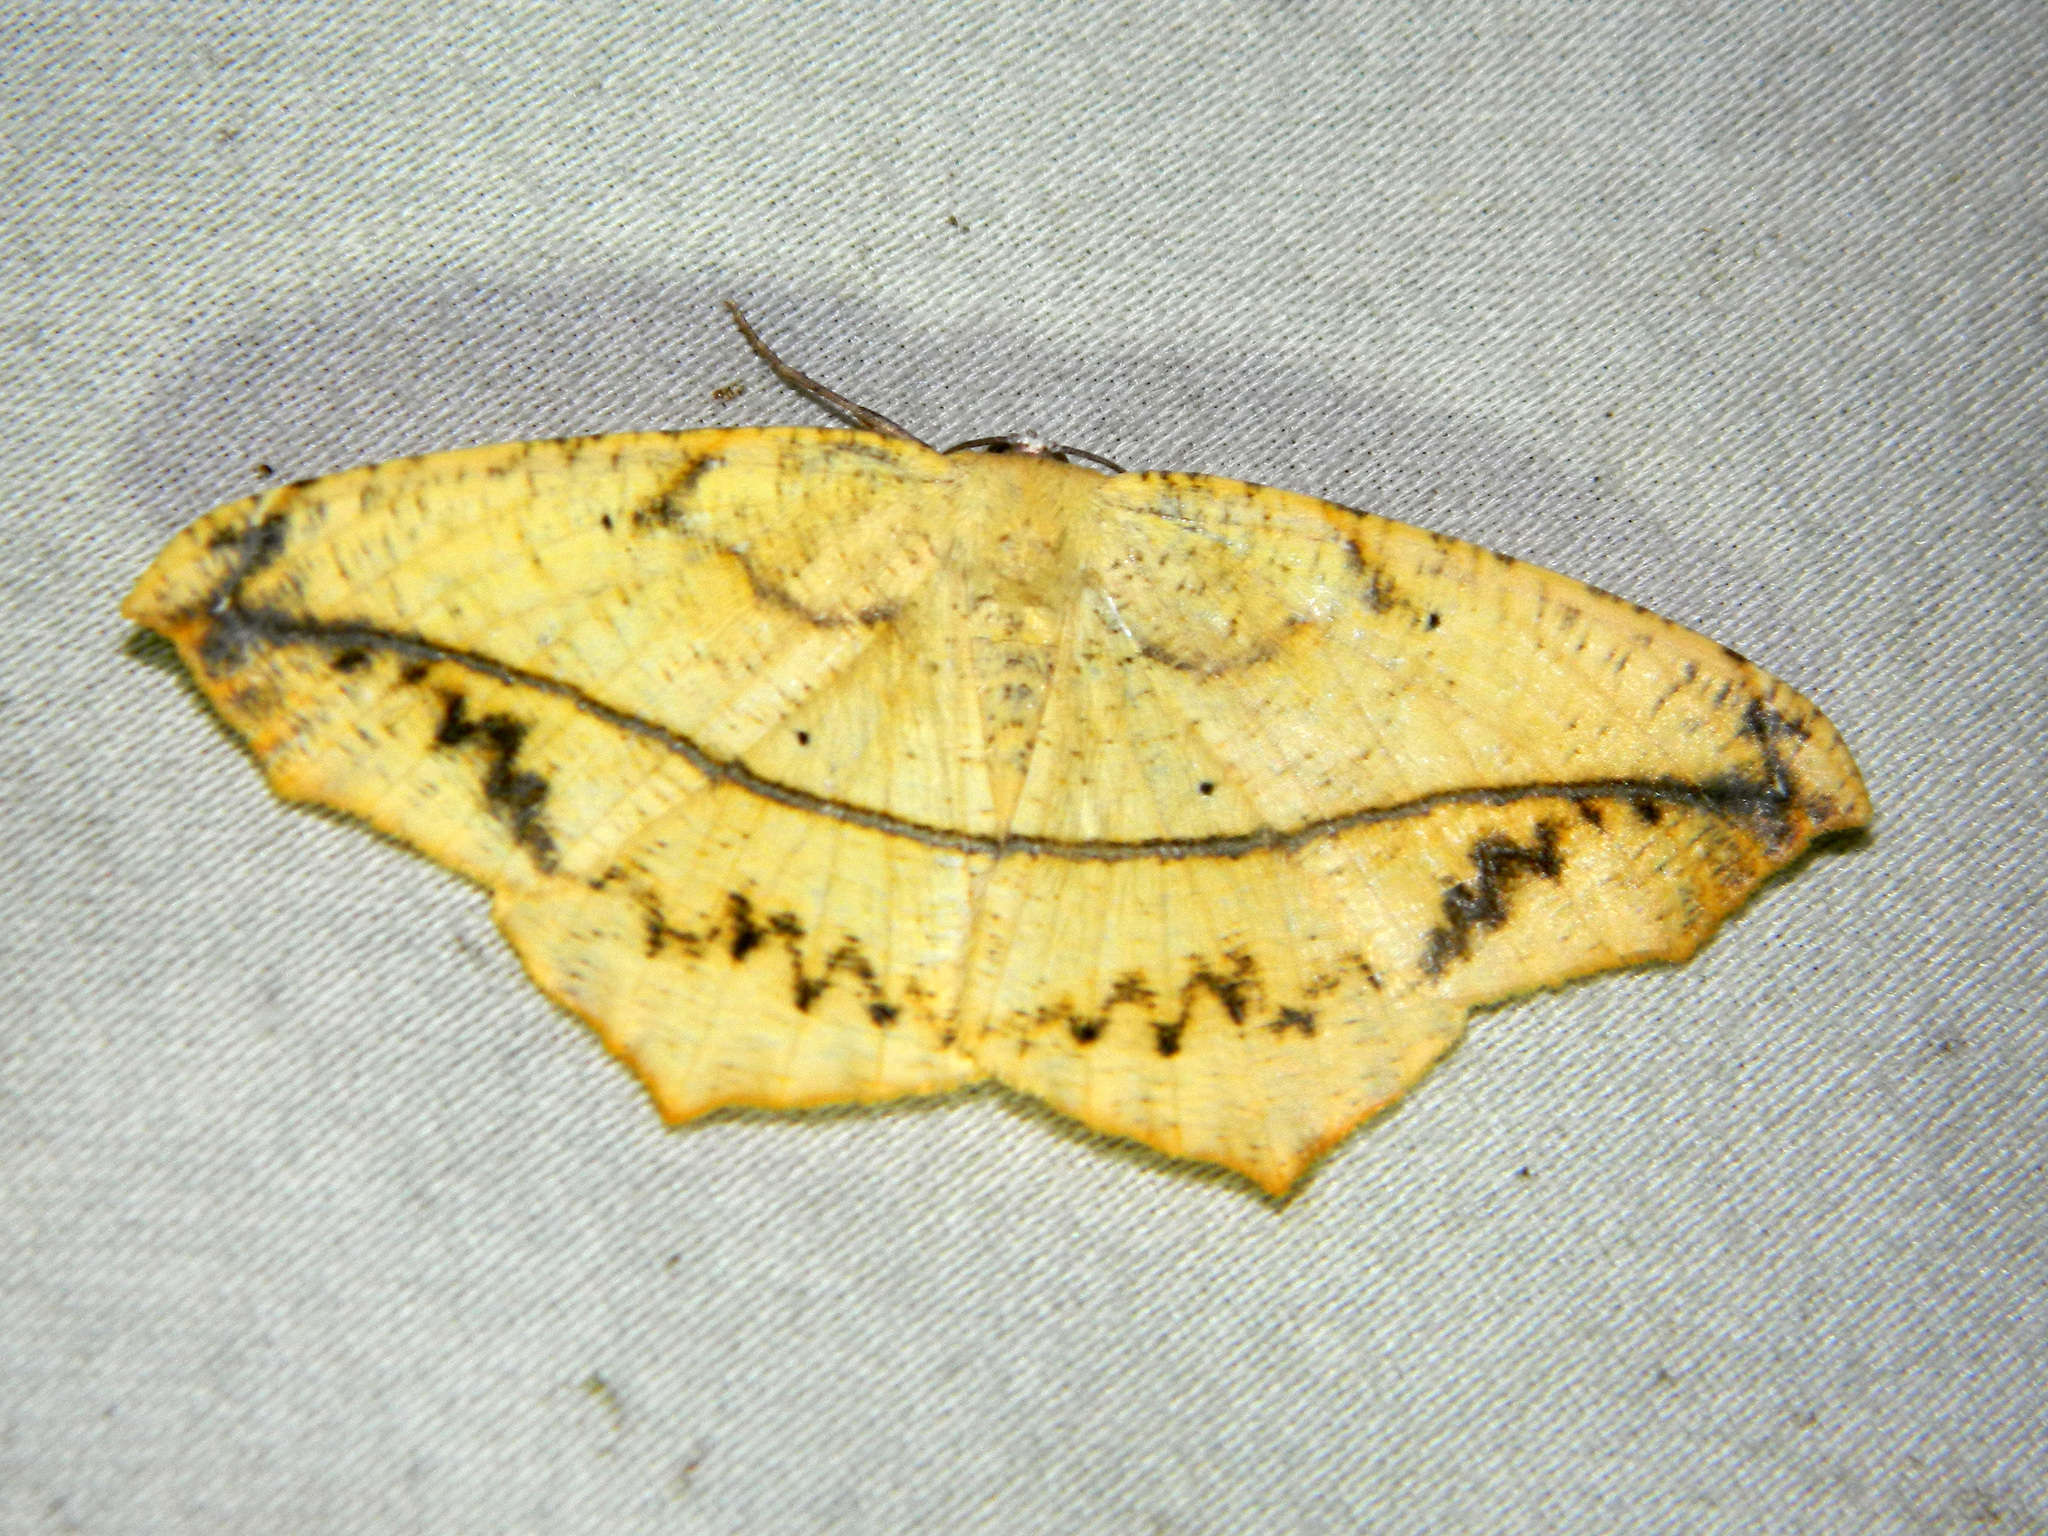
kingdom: Animalia
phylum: Arthropoda
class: Insecta
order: Lepidoptera
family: Geometridae
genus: Prochoerodes
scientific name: Prochoerodes lineola
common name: Large maple spanworm
